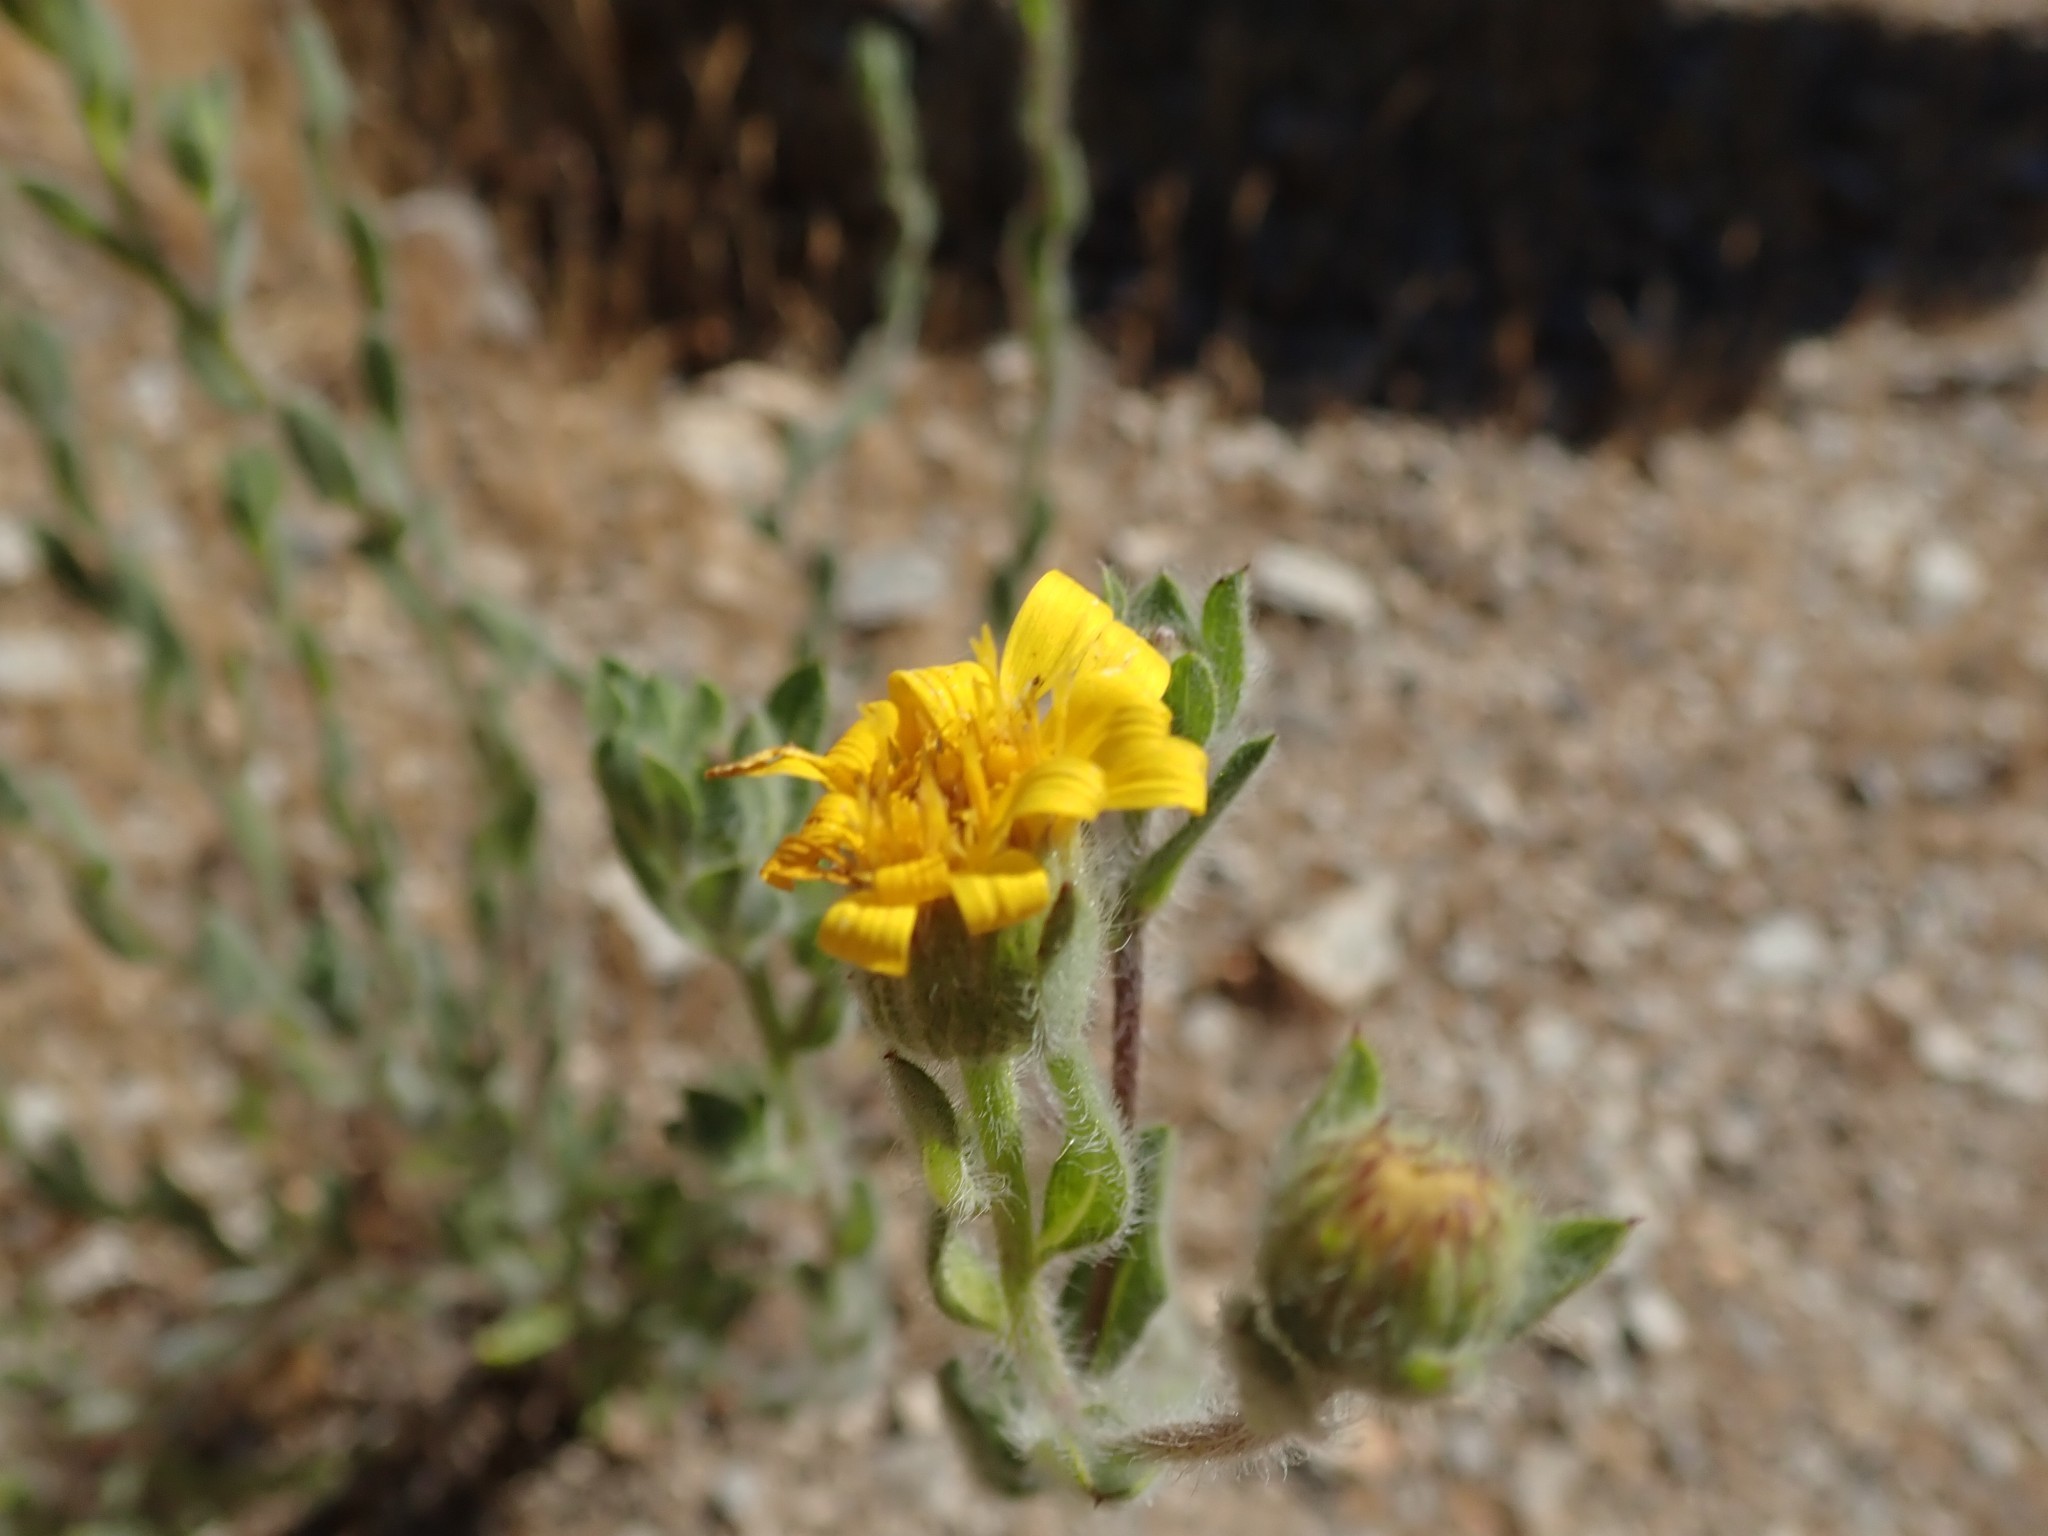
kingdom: Plantae
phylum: Tracheophyta
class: Magnoliopsida
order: Asterales
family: Asteraceae
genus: Heterotheca
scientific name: Heterotheca sessiliflora
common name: Sessile-flower golden-aster
